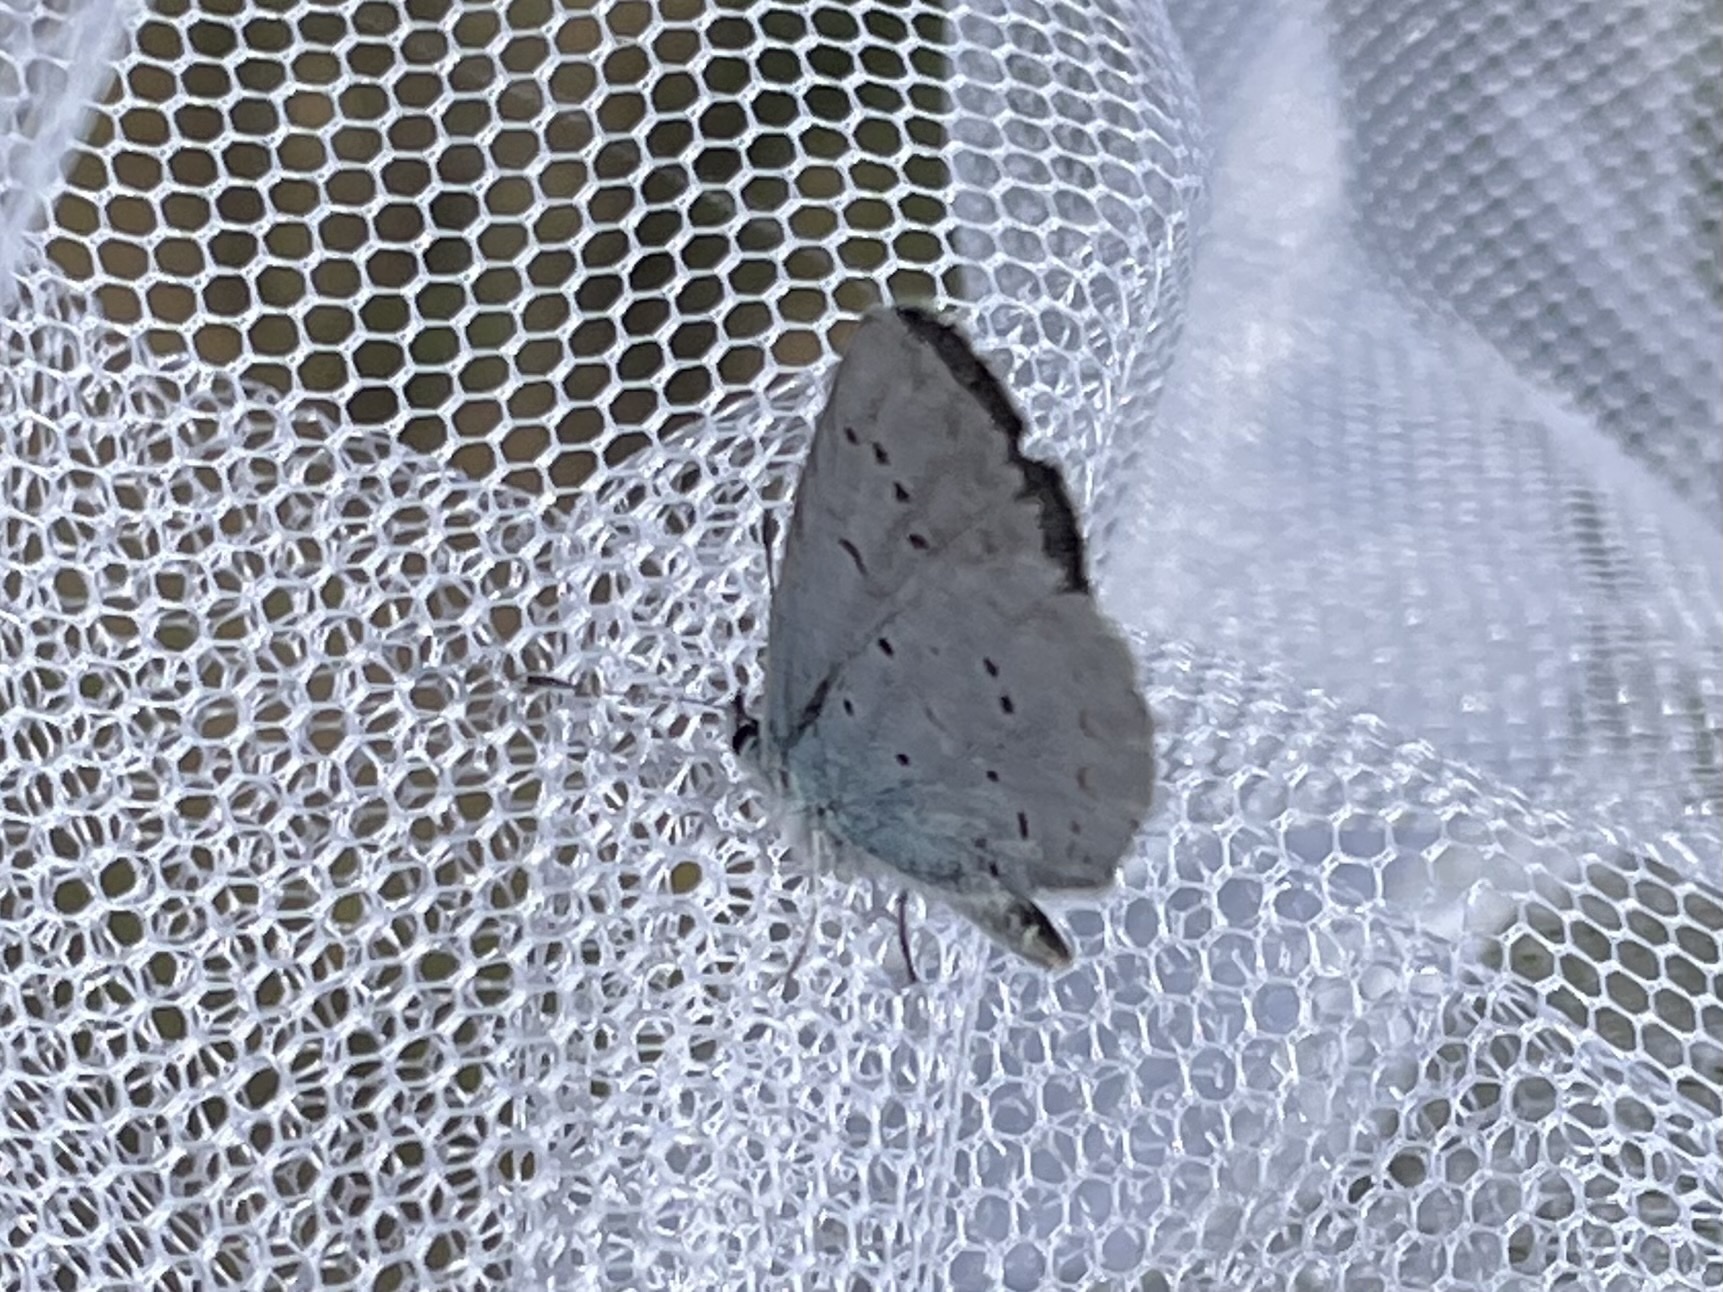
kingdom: Animalia
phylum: Arthropoda
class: Insecta
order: Lepidoptera
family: Lycaenidae
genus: Celastrina
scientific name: Celastrina ladon
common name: Spring azure
